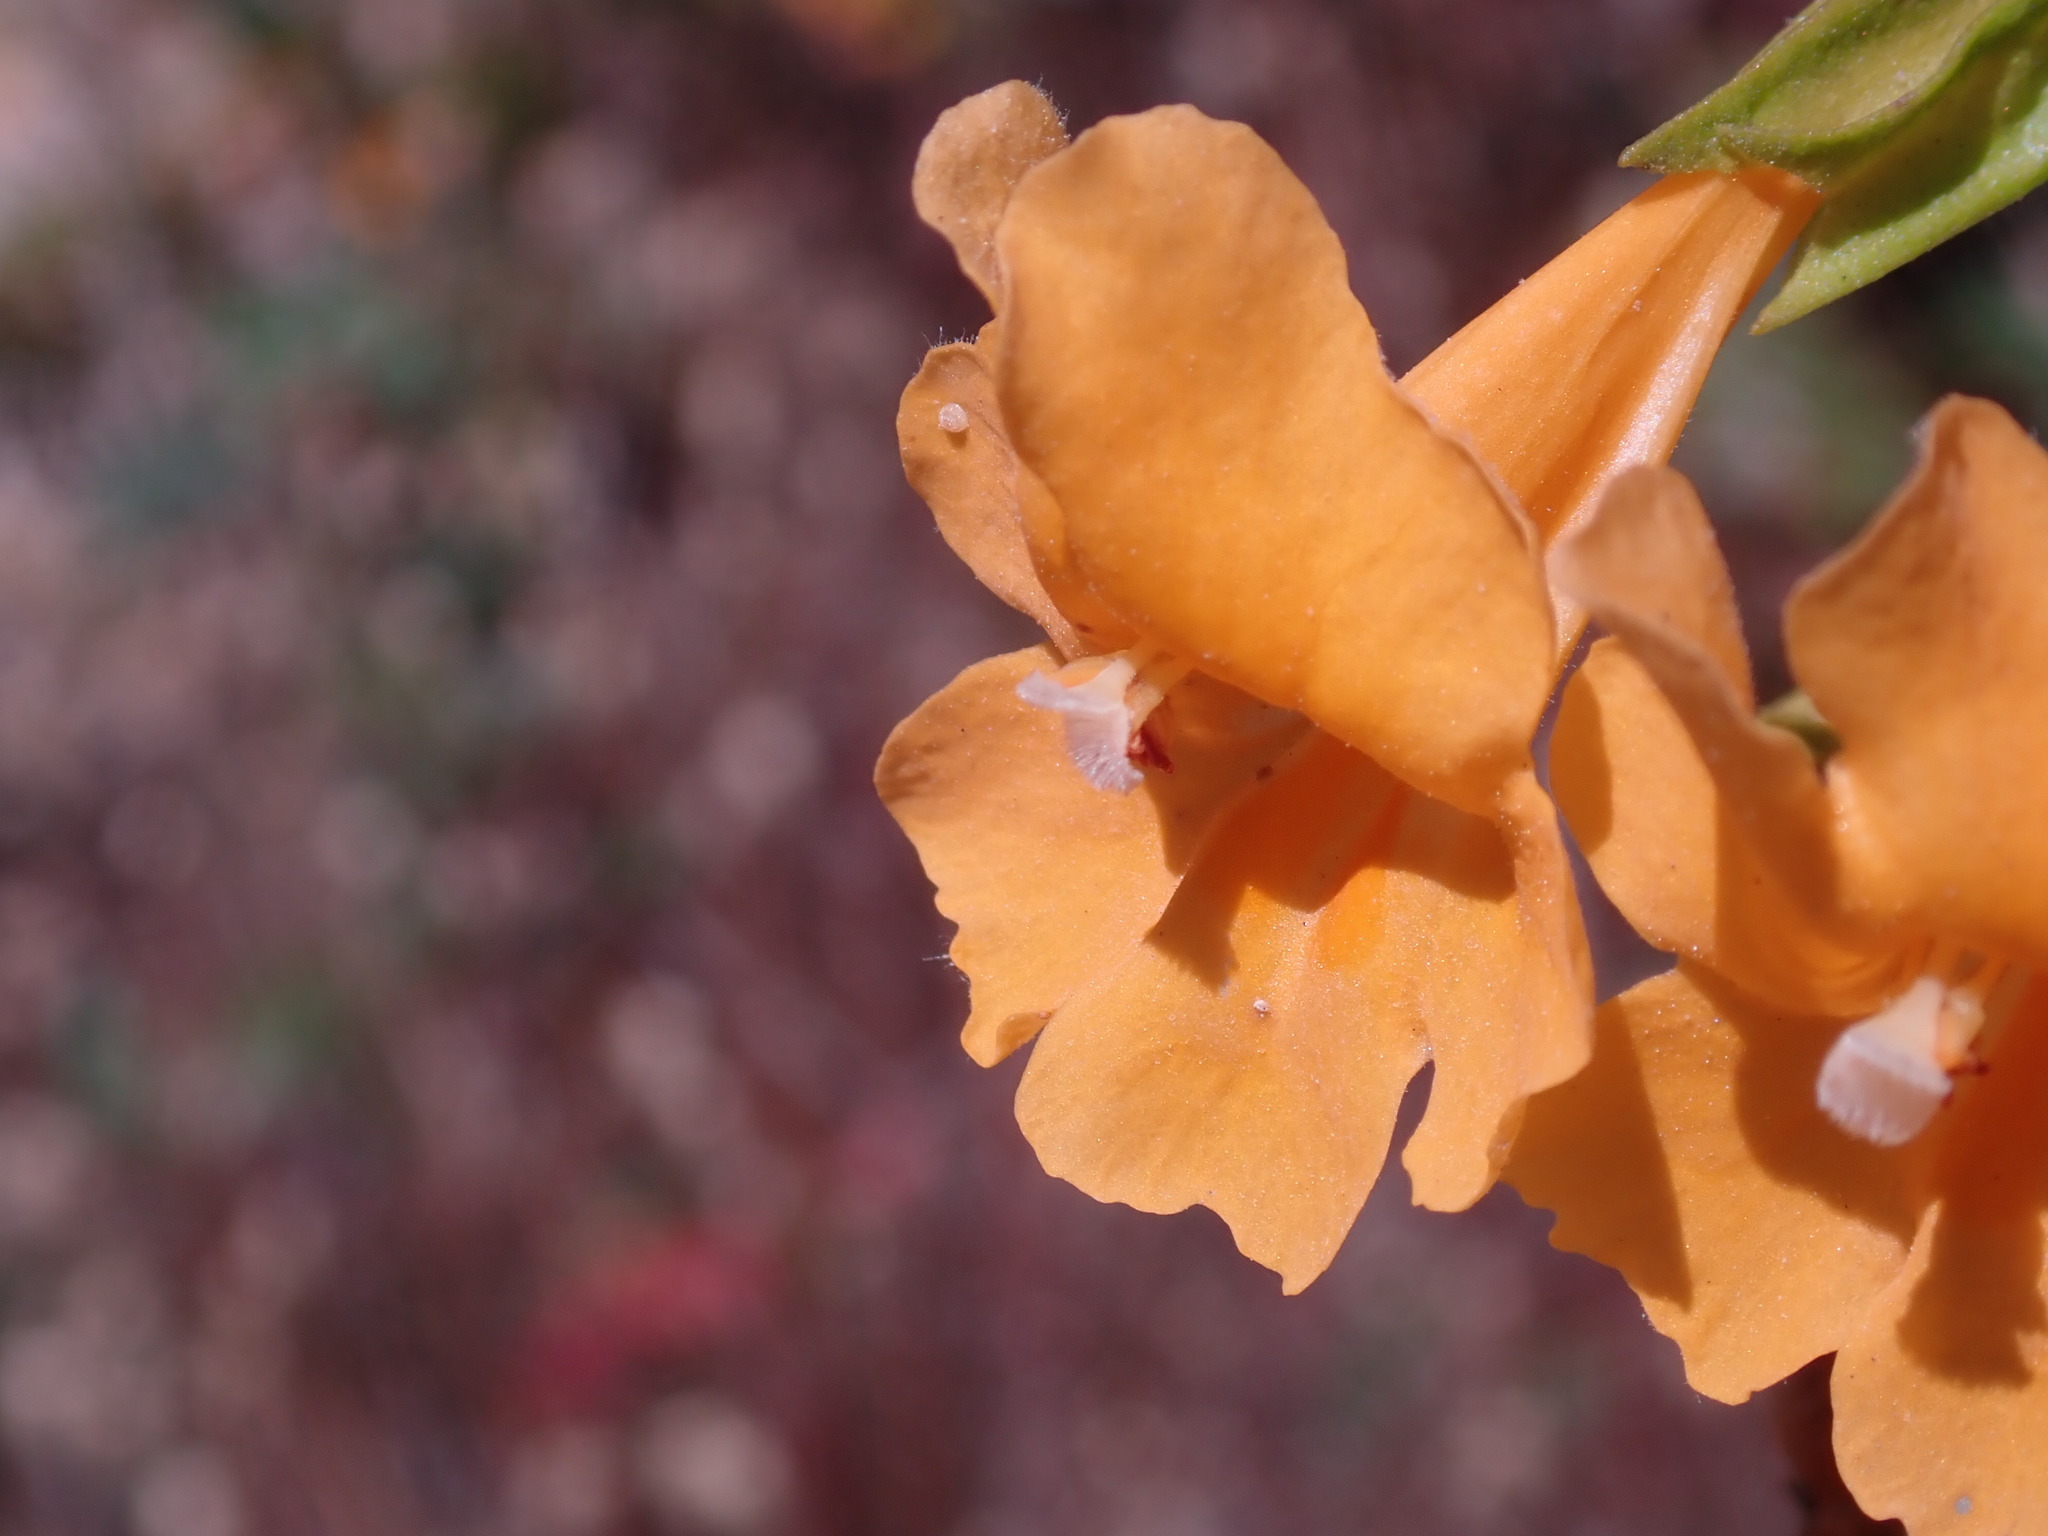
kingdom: Plantae
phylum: Tracheophyta
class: Magnoliopsida
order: Lamiales
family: Phrymaceae
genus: Diplacus
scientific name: Diplacus aurantiacus
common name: Bush monkey-flower
